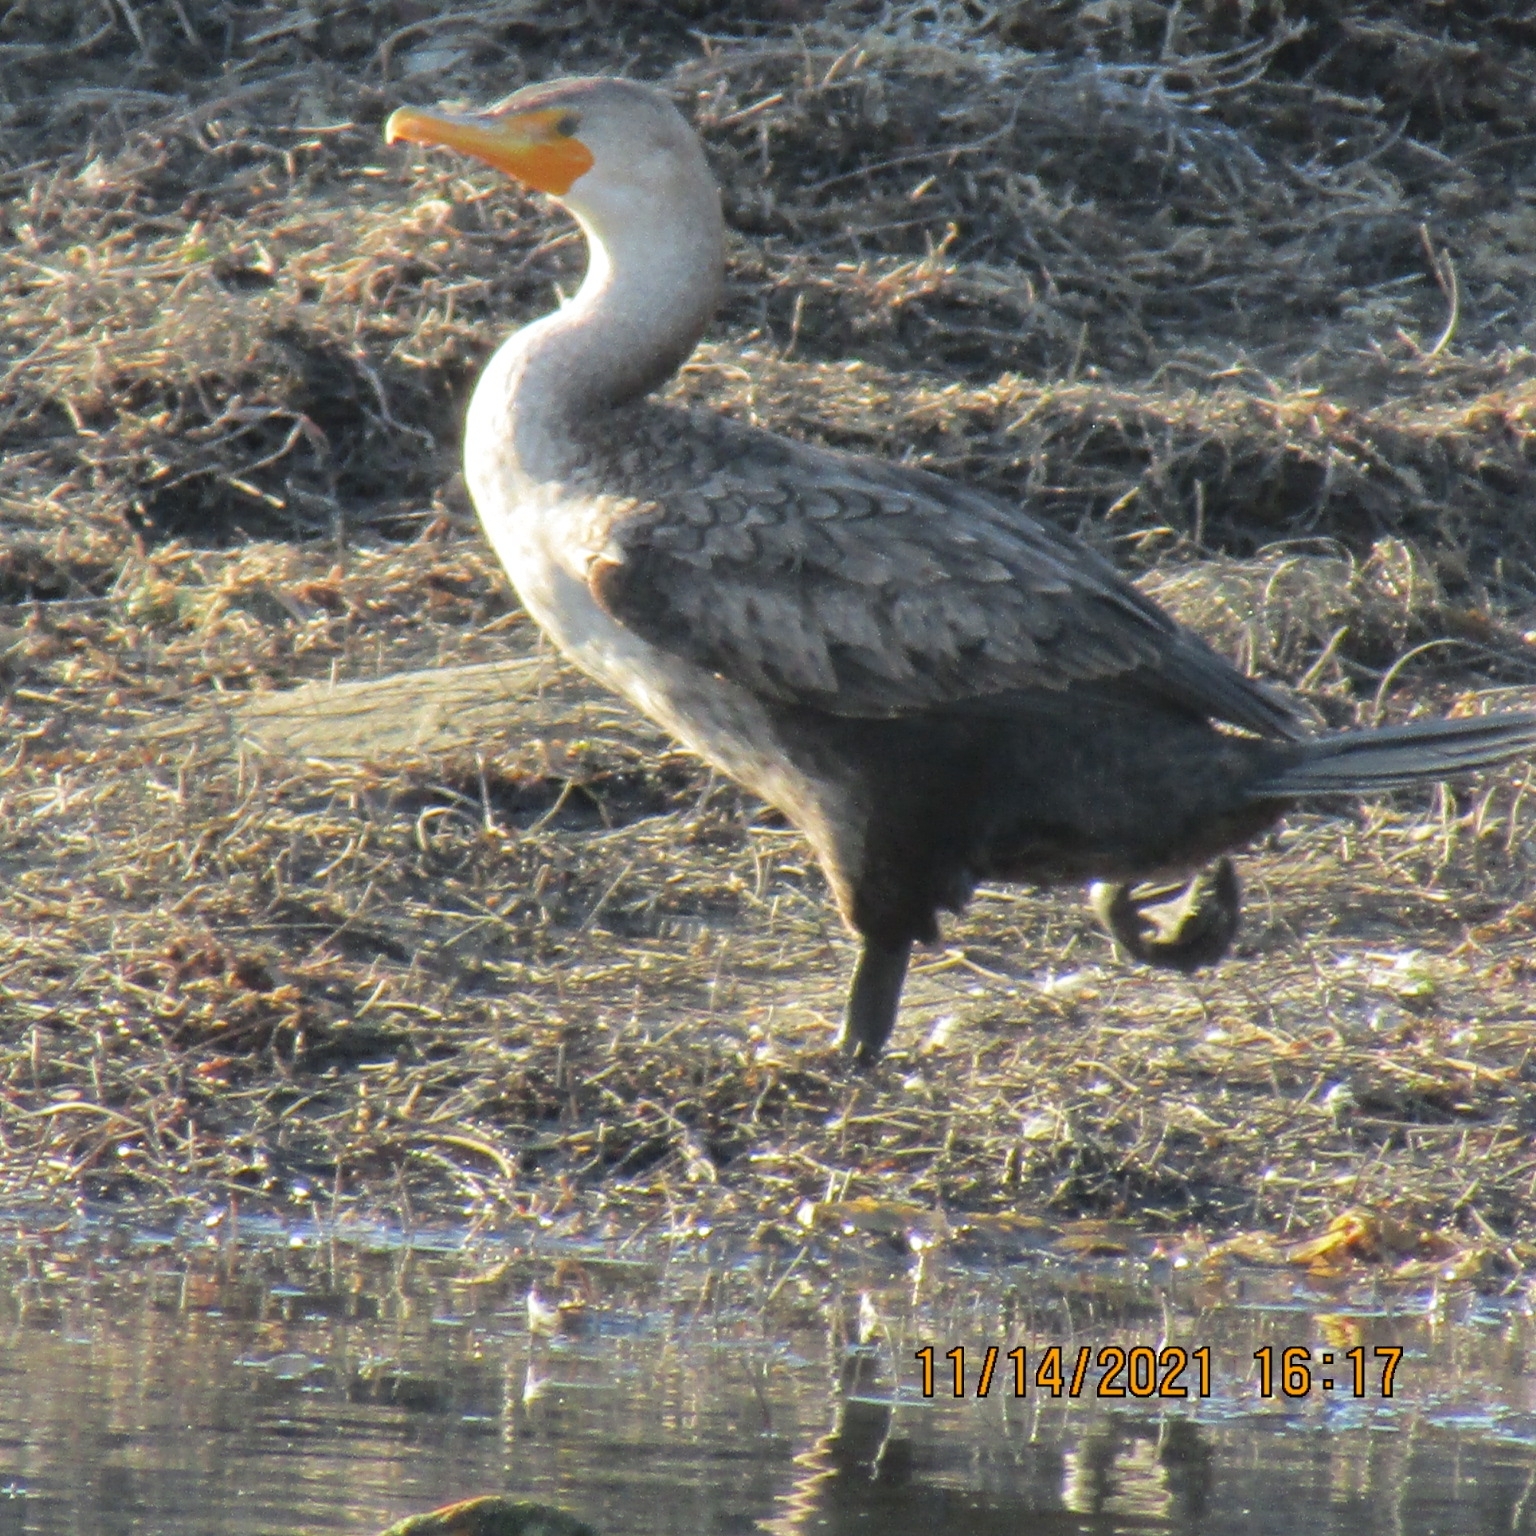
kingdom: Animalia
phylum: Chordata
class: Aves
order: Suliformes
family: Phalacrocoracidae
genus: Phalacrocorax
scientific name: Phalacrocorax auritus
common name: Double-crested cormorant
